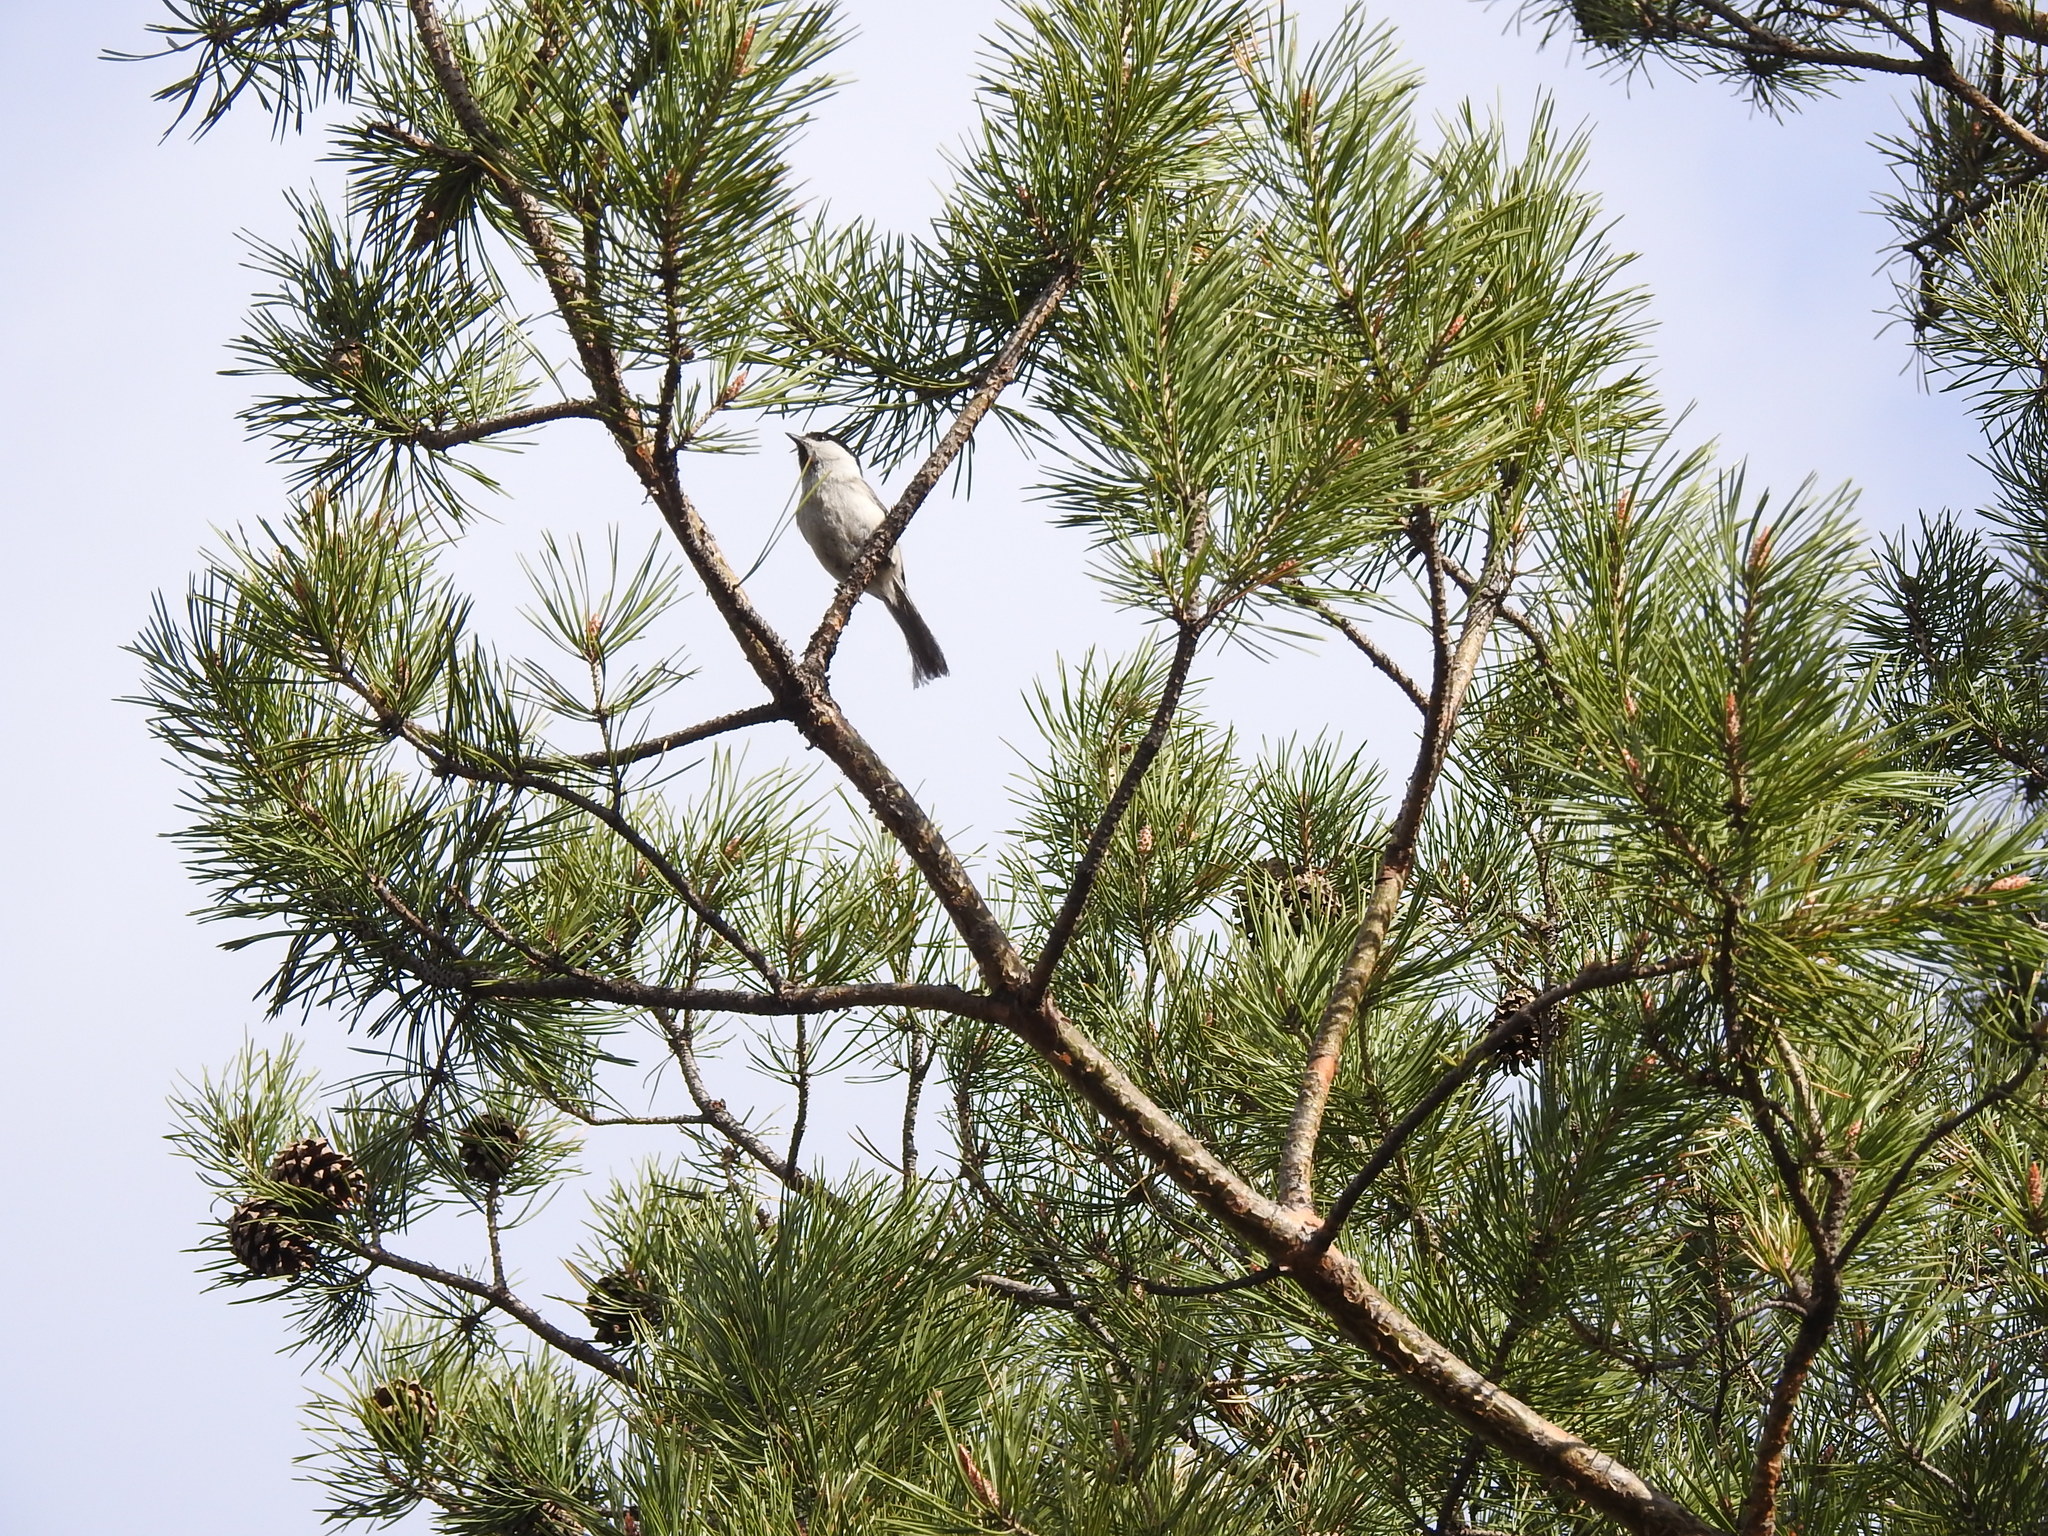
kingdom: Animalia
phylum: Chordata
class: Aves
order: Passeriformes
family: Paridae
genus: Poecile
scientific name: Poecile montanus
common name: Willow tit
